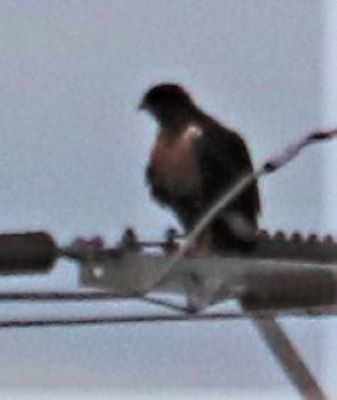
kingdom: Animalia
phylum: Chordata
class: Aves
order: Accipitriformes
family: Accipitridae
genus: Buteo
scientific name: Buteo rufofuscus
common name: Jackal buzzard
